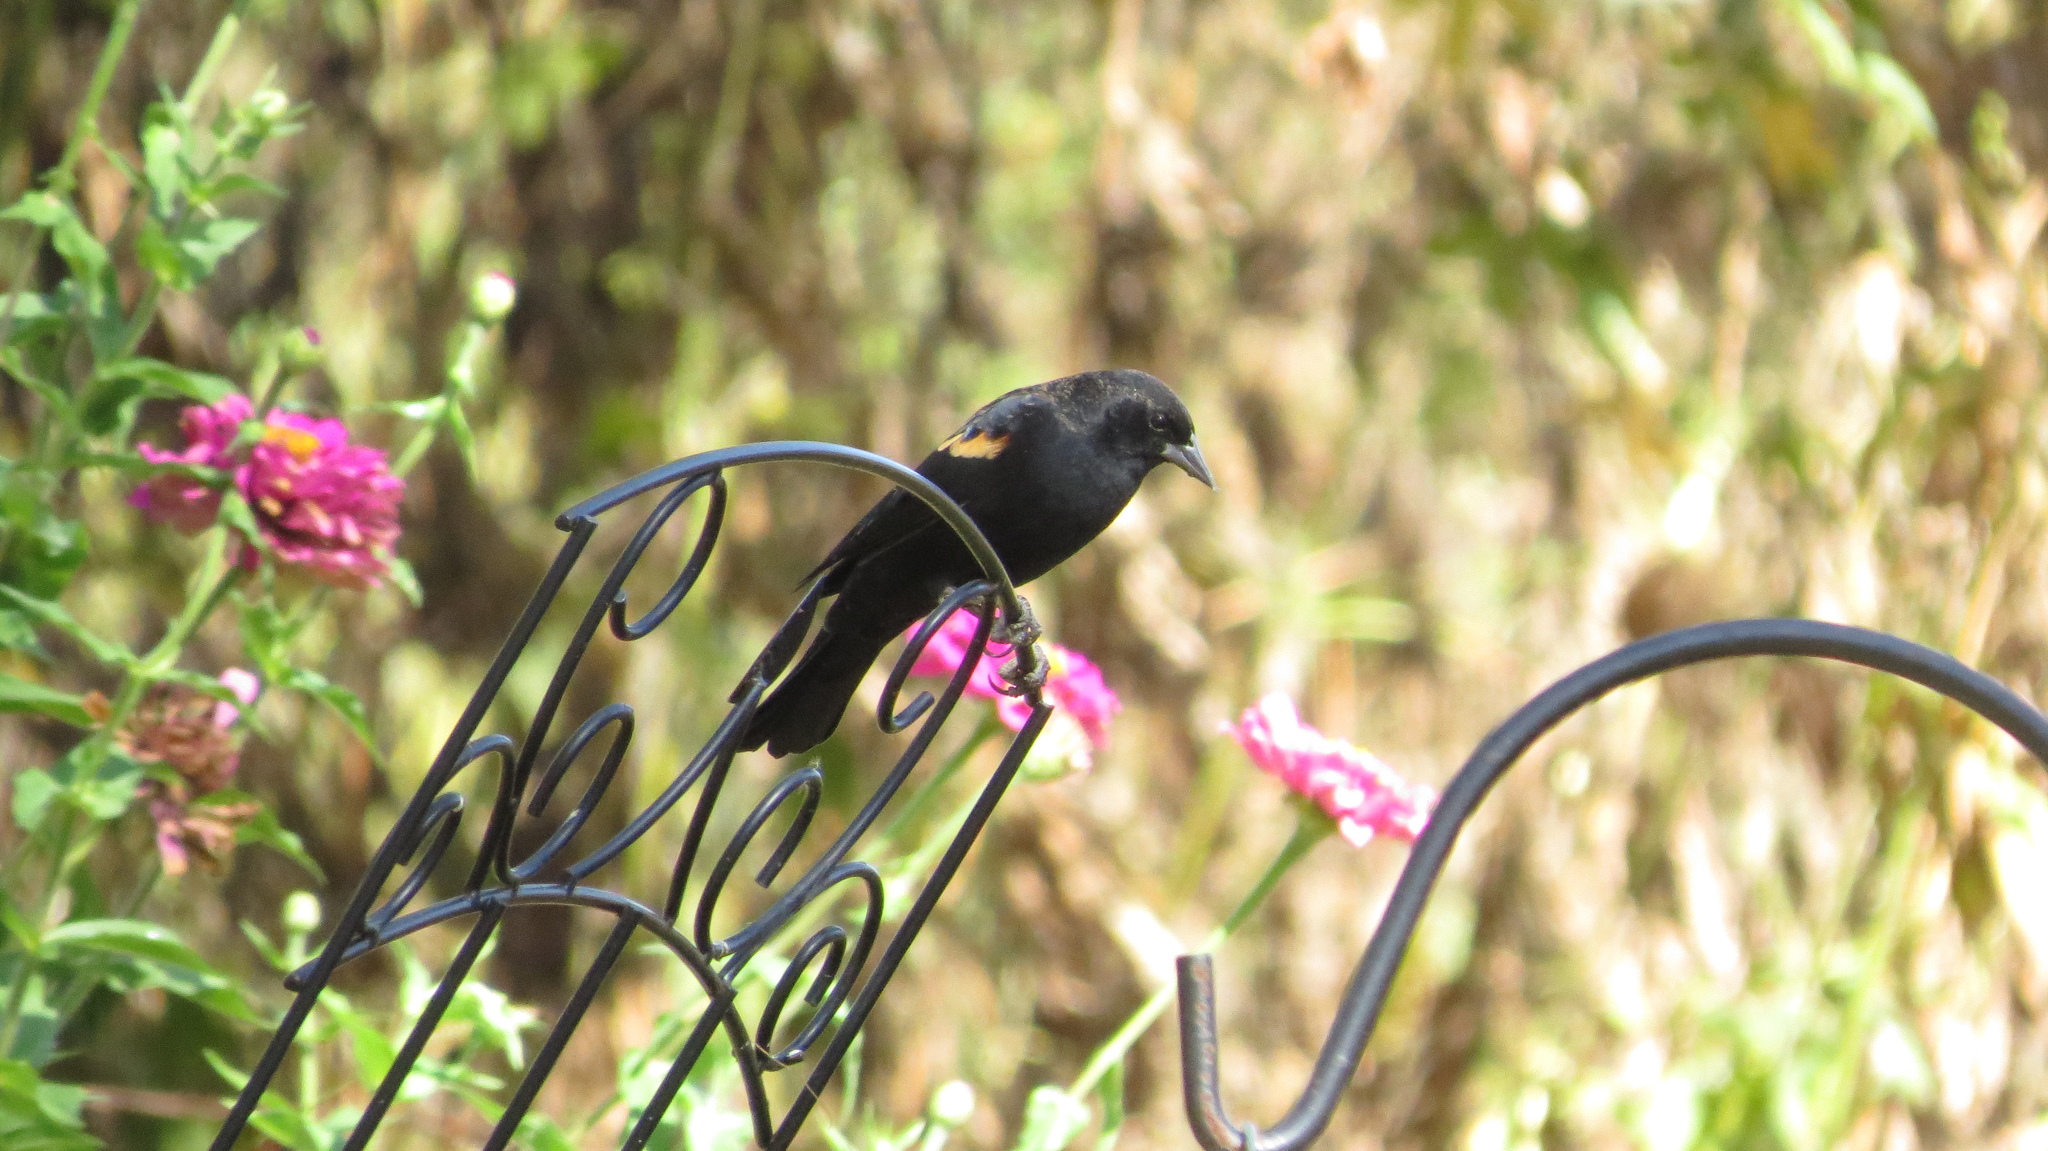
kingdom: Animalia
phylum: Chordata
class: Aves
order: Passeriformes
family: Icteridae
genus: Agelaius
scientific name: Agelaius phoeniceus
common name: Red-winged blackbird
